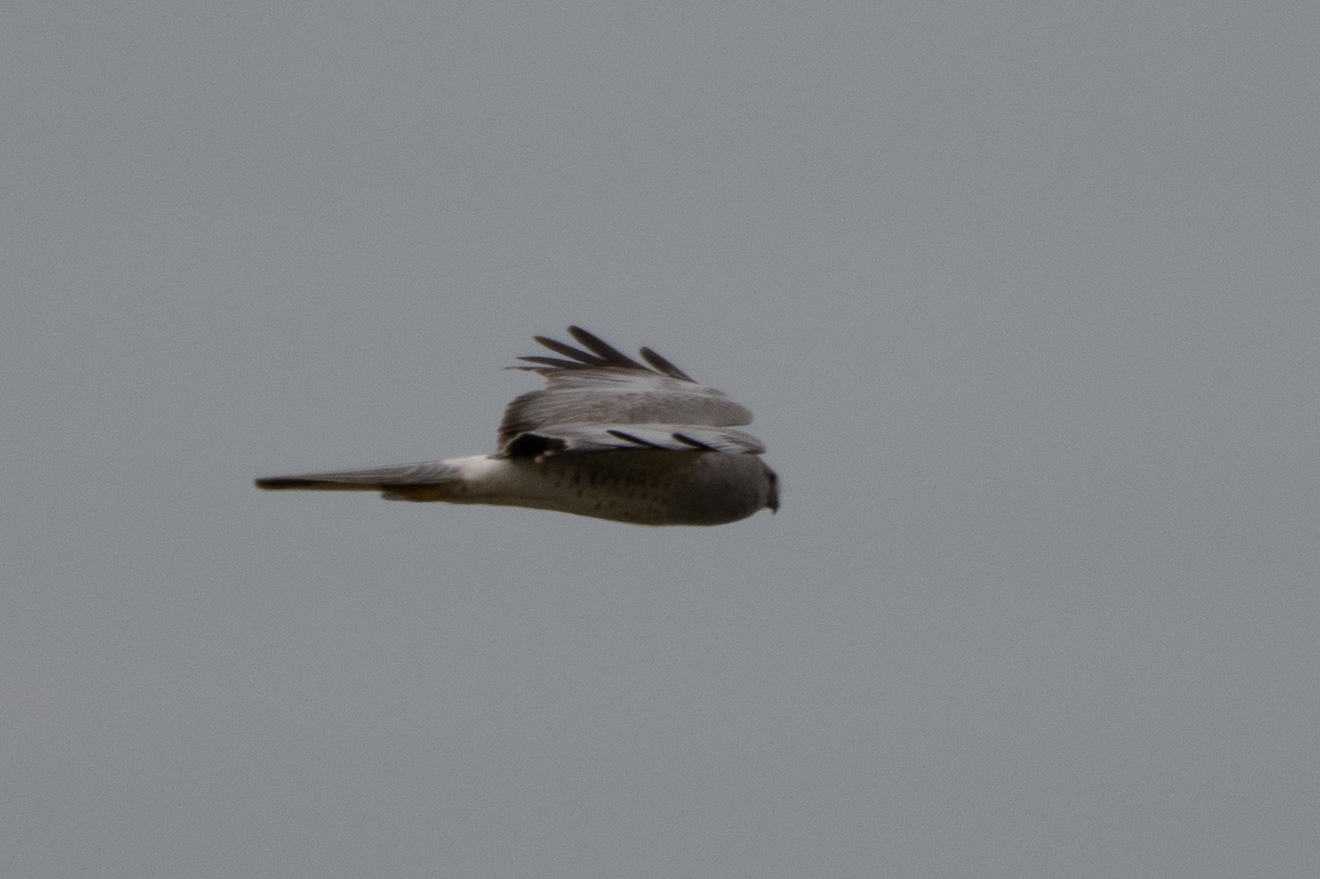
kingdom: Animalia
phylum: Chordata
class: Aves
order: Accipitriformes
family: Accipitridae
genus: Circus
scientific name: Circus cyaneus
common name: Hen harrier
